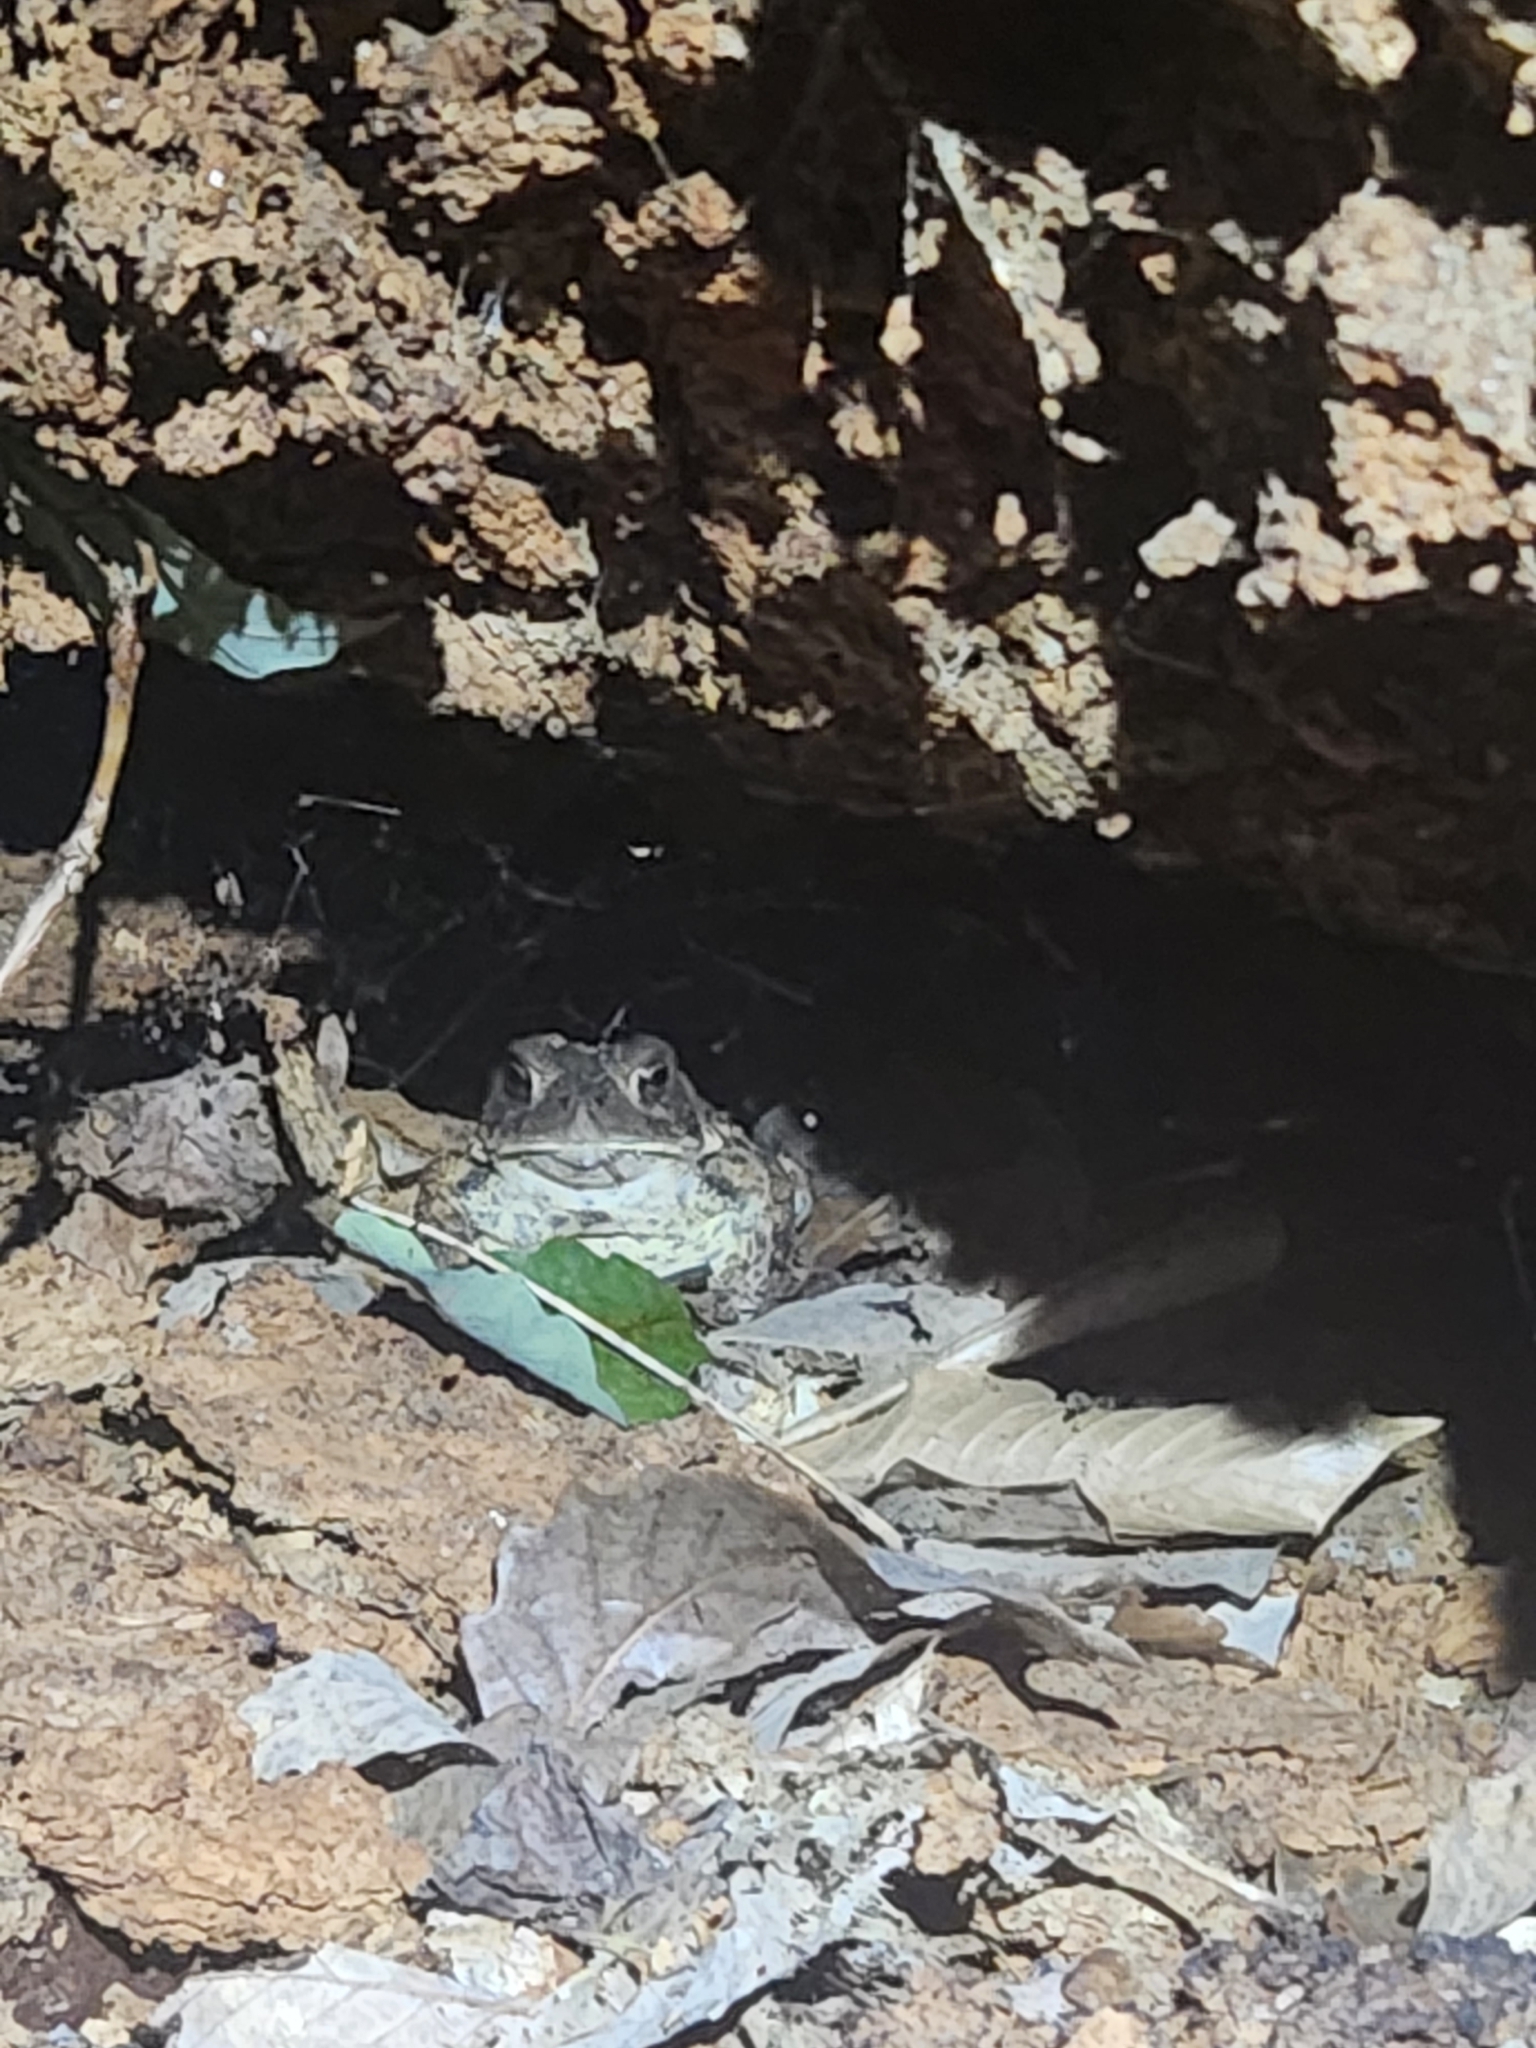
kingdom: Animalia
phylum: Chordata
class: Amphibia
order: Anura
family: Bufonidae
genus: Anaxyrus
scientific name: Anaxyrus americanus
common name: American toad
